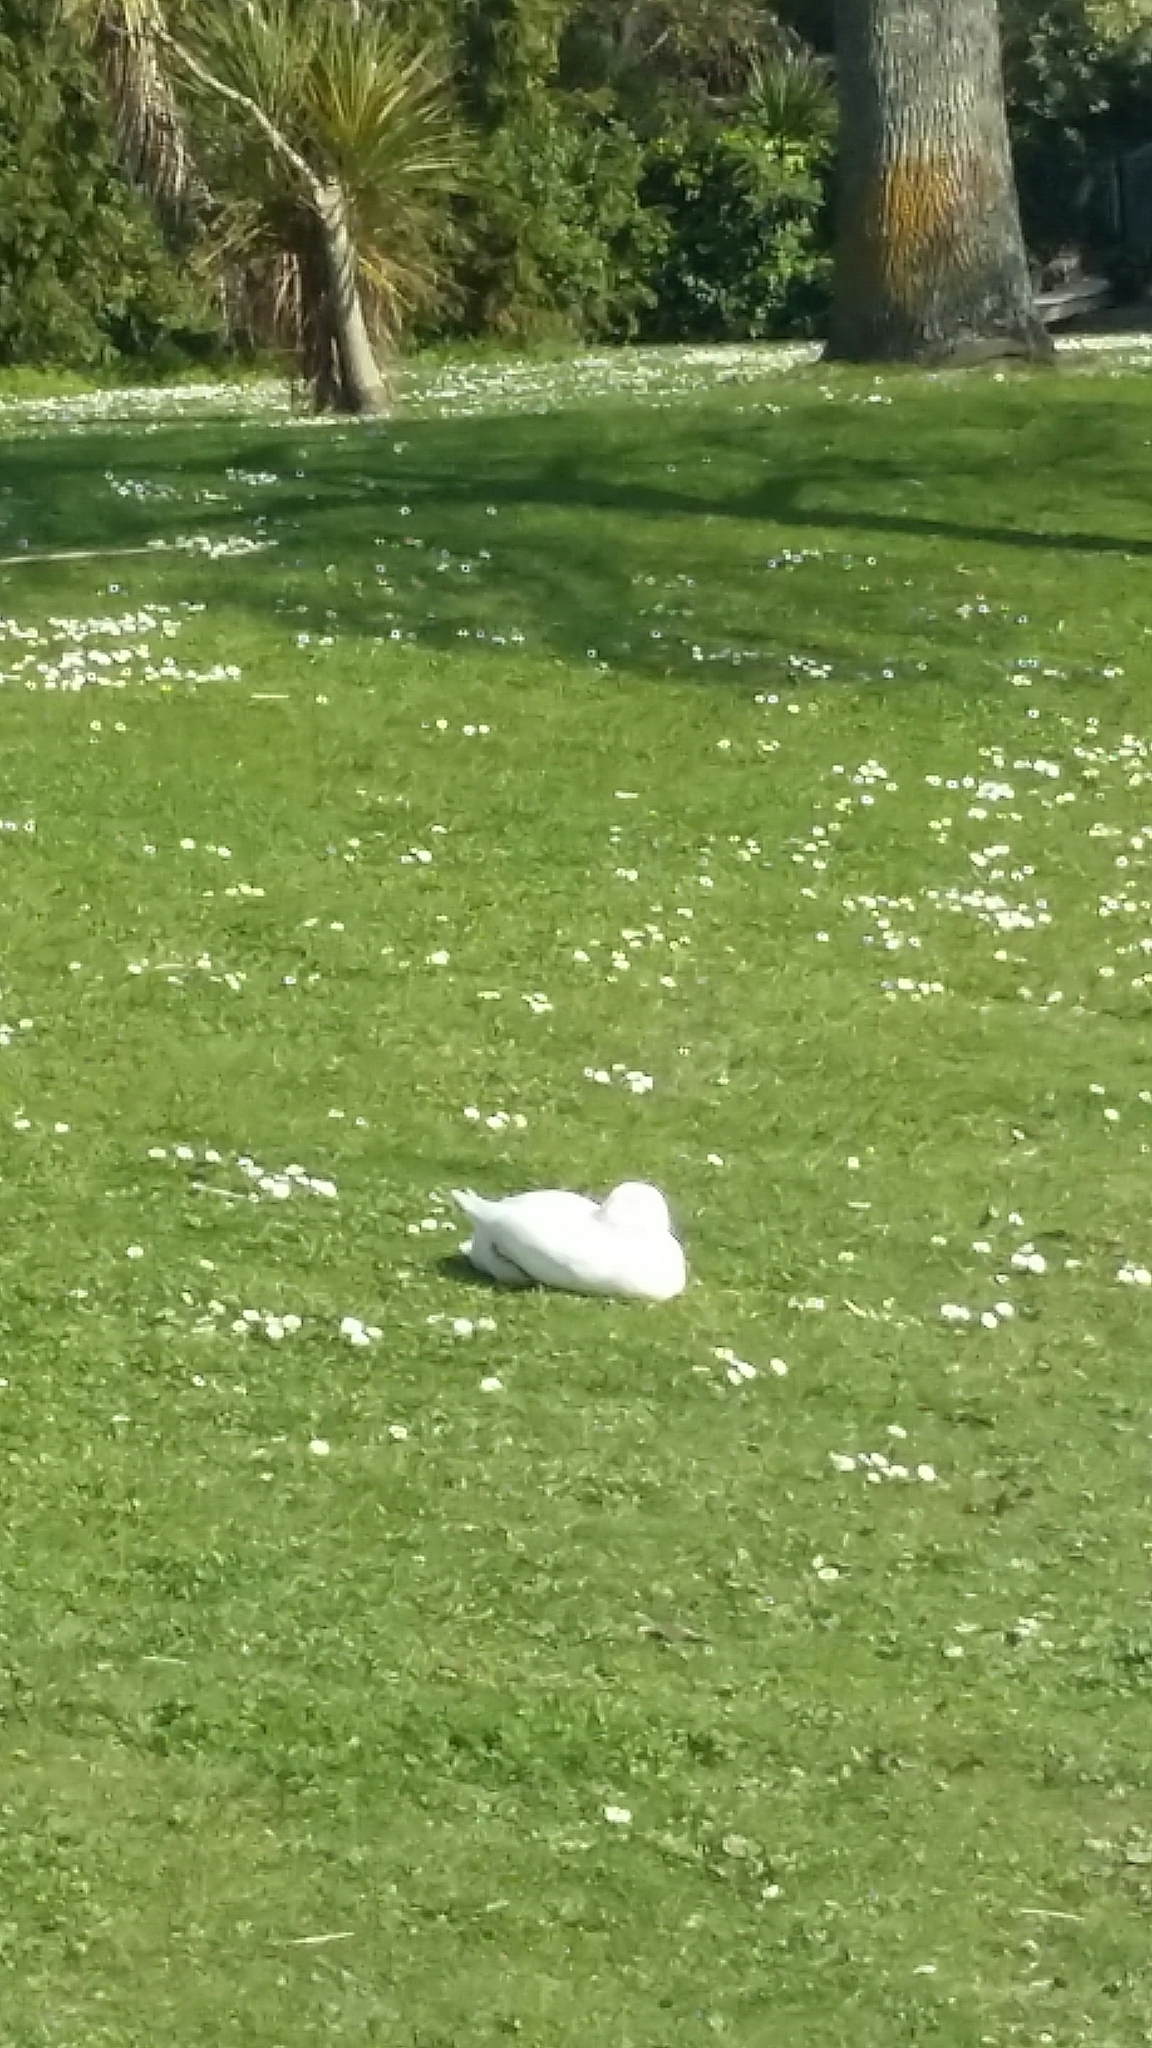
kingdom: Animalia
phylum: Chordata
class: Aves
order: Anseriformes
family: Anatidae
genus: Anser
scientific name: Anser anser
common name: Greylag goose
